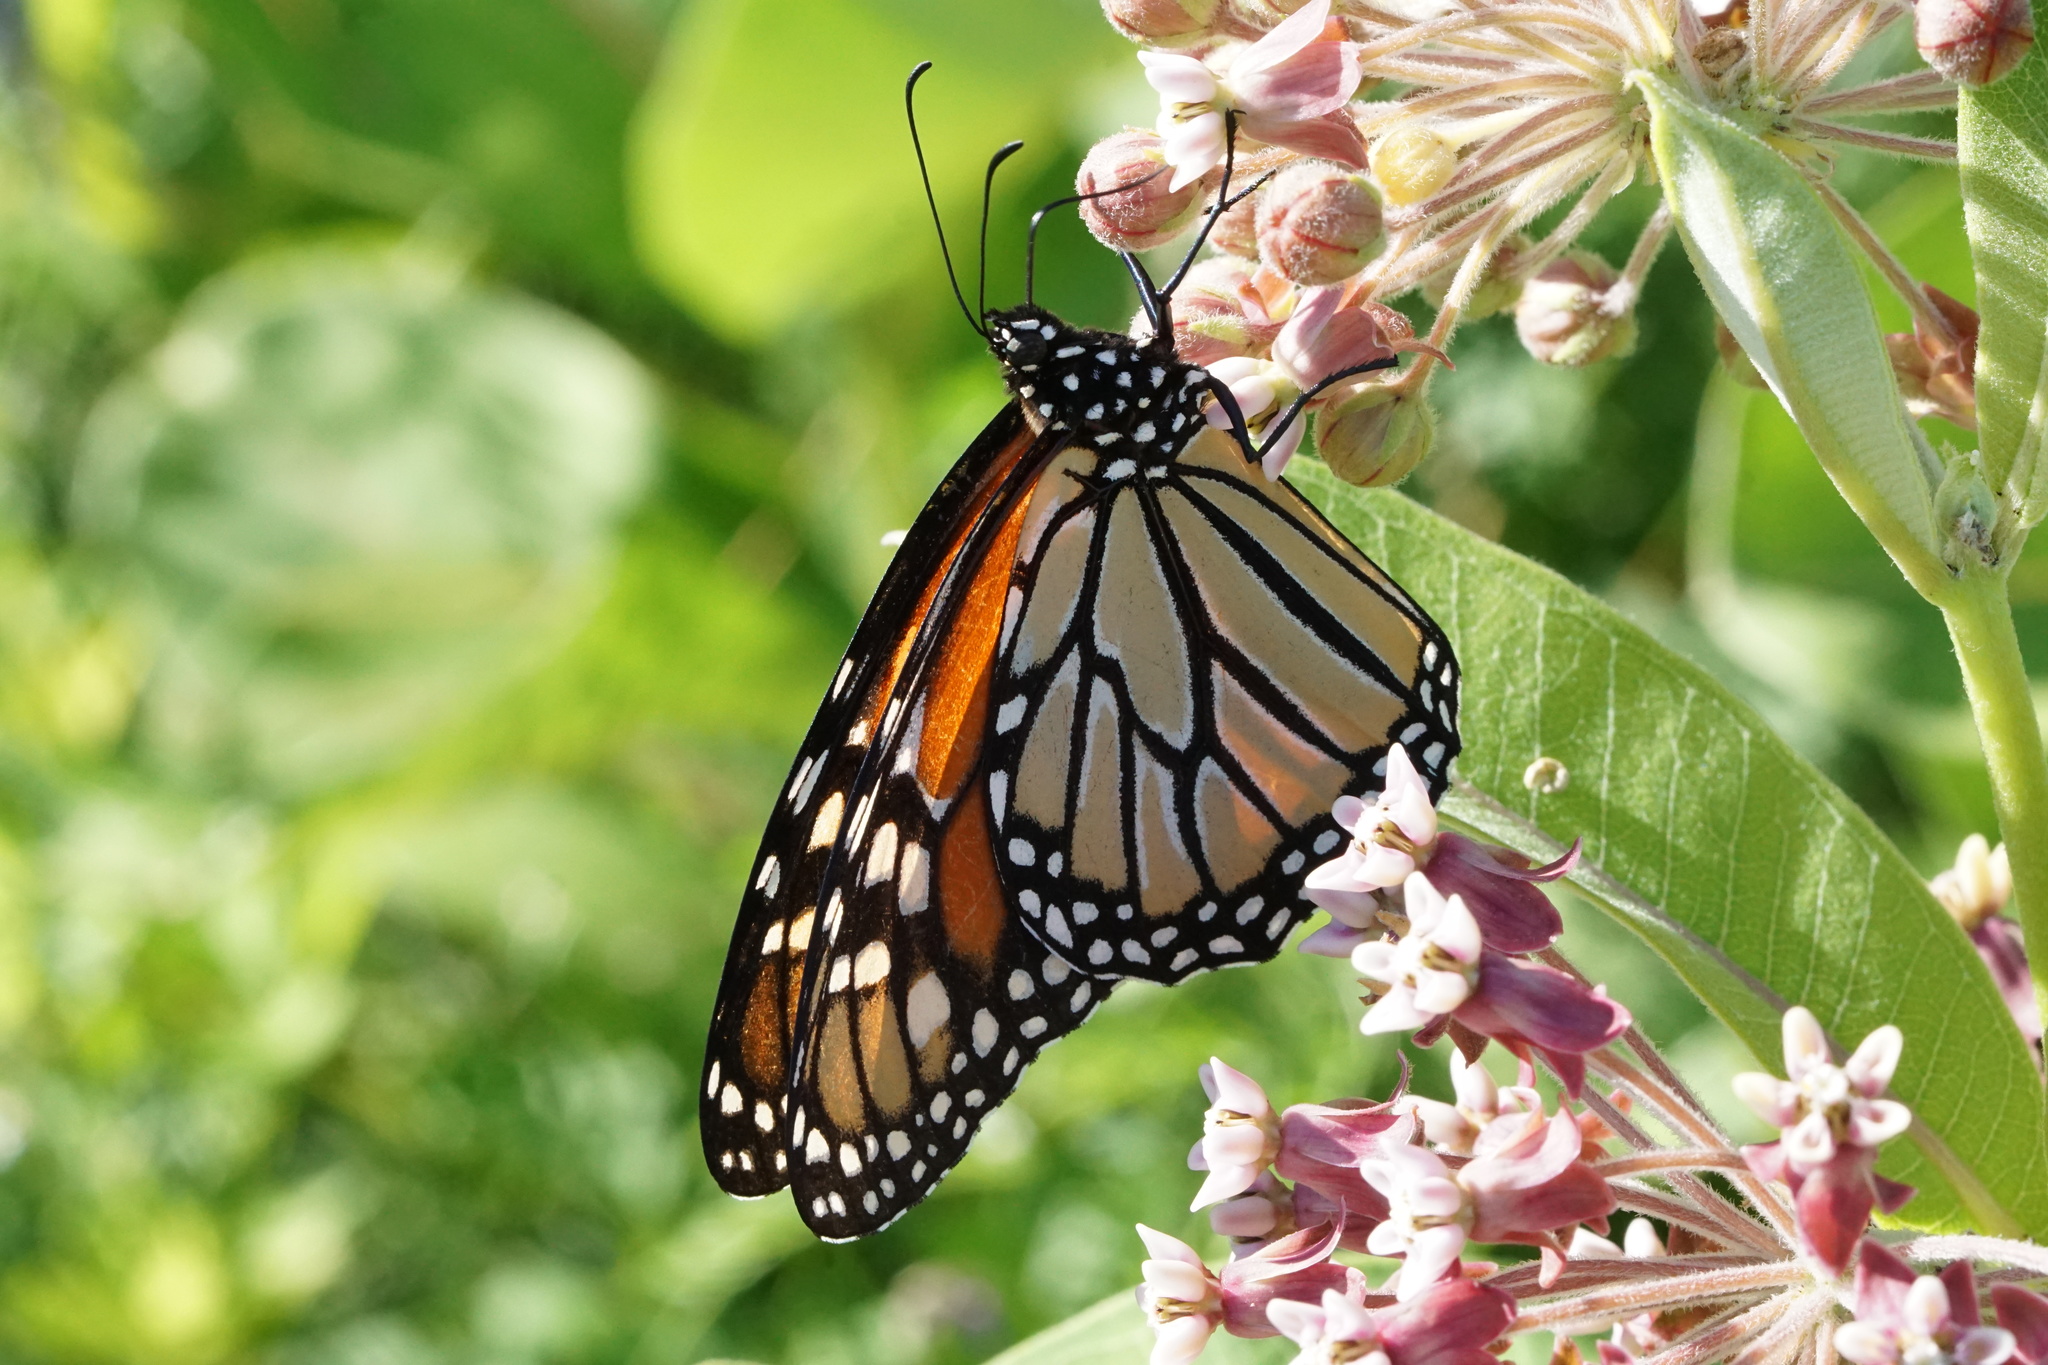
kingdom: Animalia
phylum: Arthropoda
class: Insecta
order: Lepidoptera
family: Nymphalidae
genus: Danaus
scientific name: Danaus plexippus
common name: Monarch
